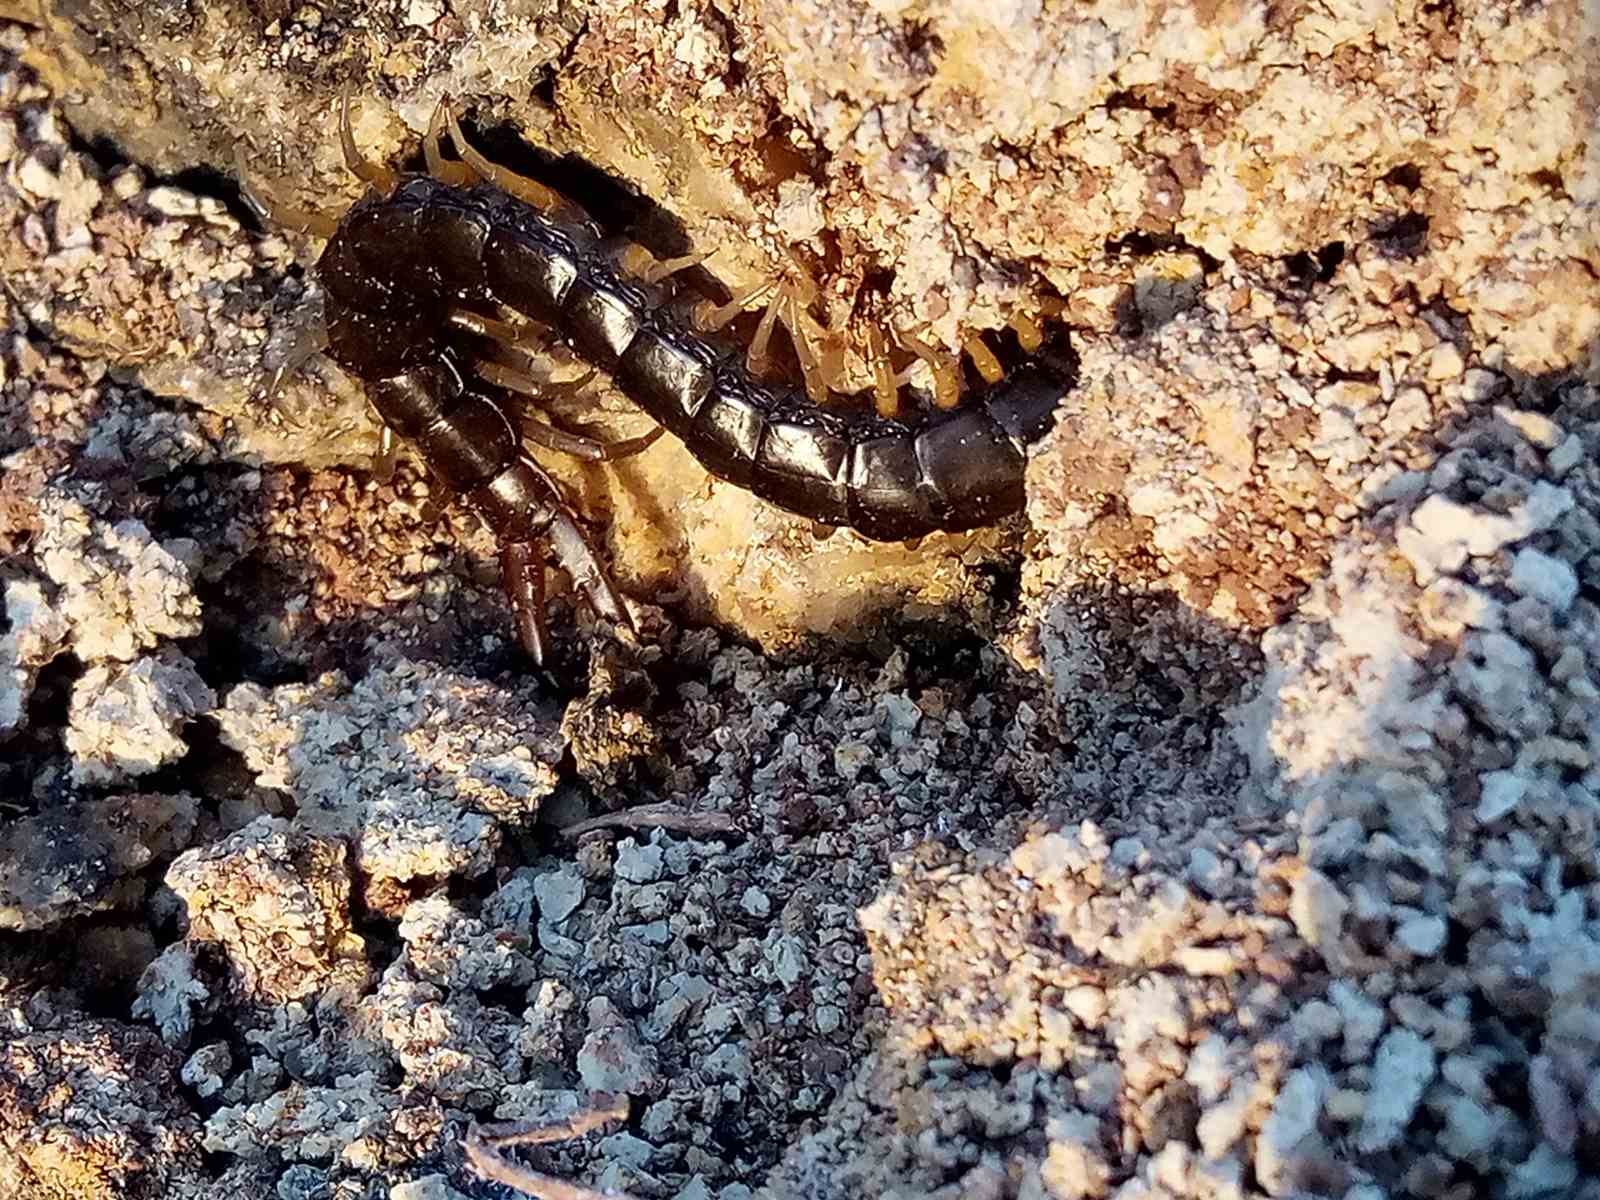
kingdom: Animalia
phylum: Arthropoda
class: Chilopoda
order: Scolopendromorpha
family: Scolopendridae
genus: Scolopendra
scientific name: Scolopendra cingulata
